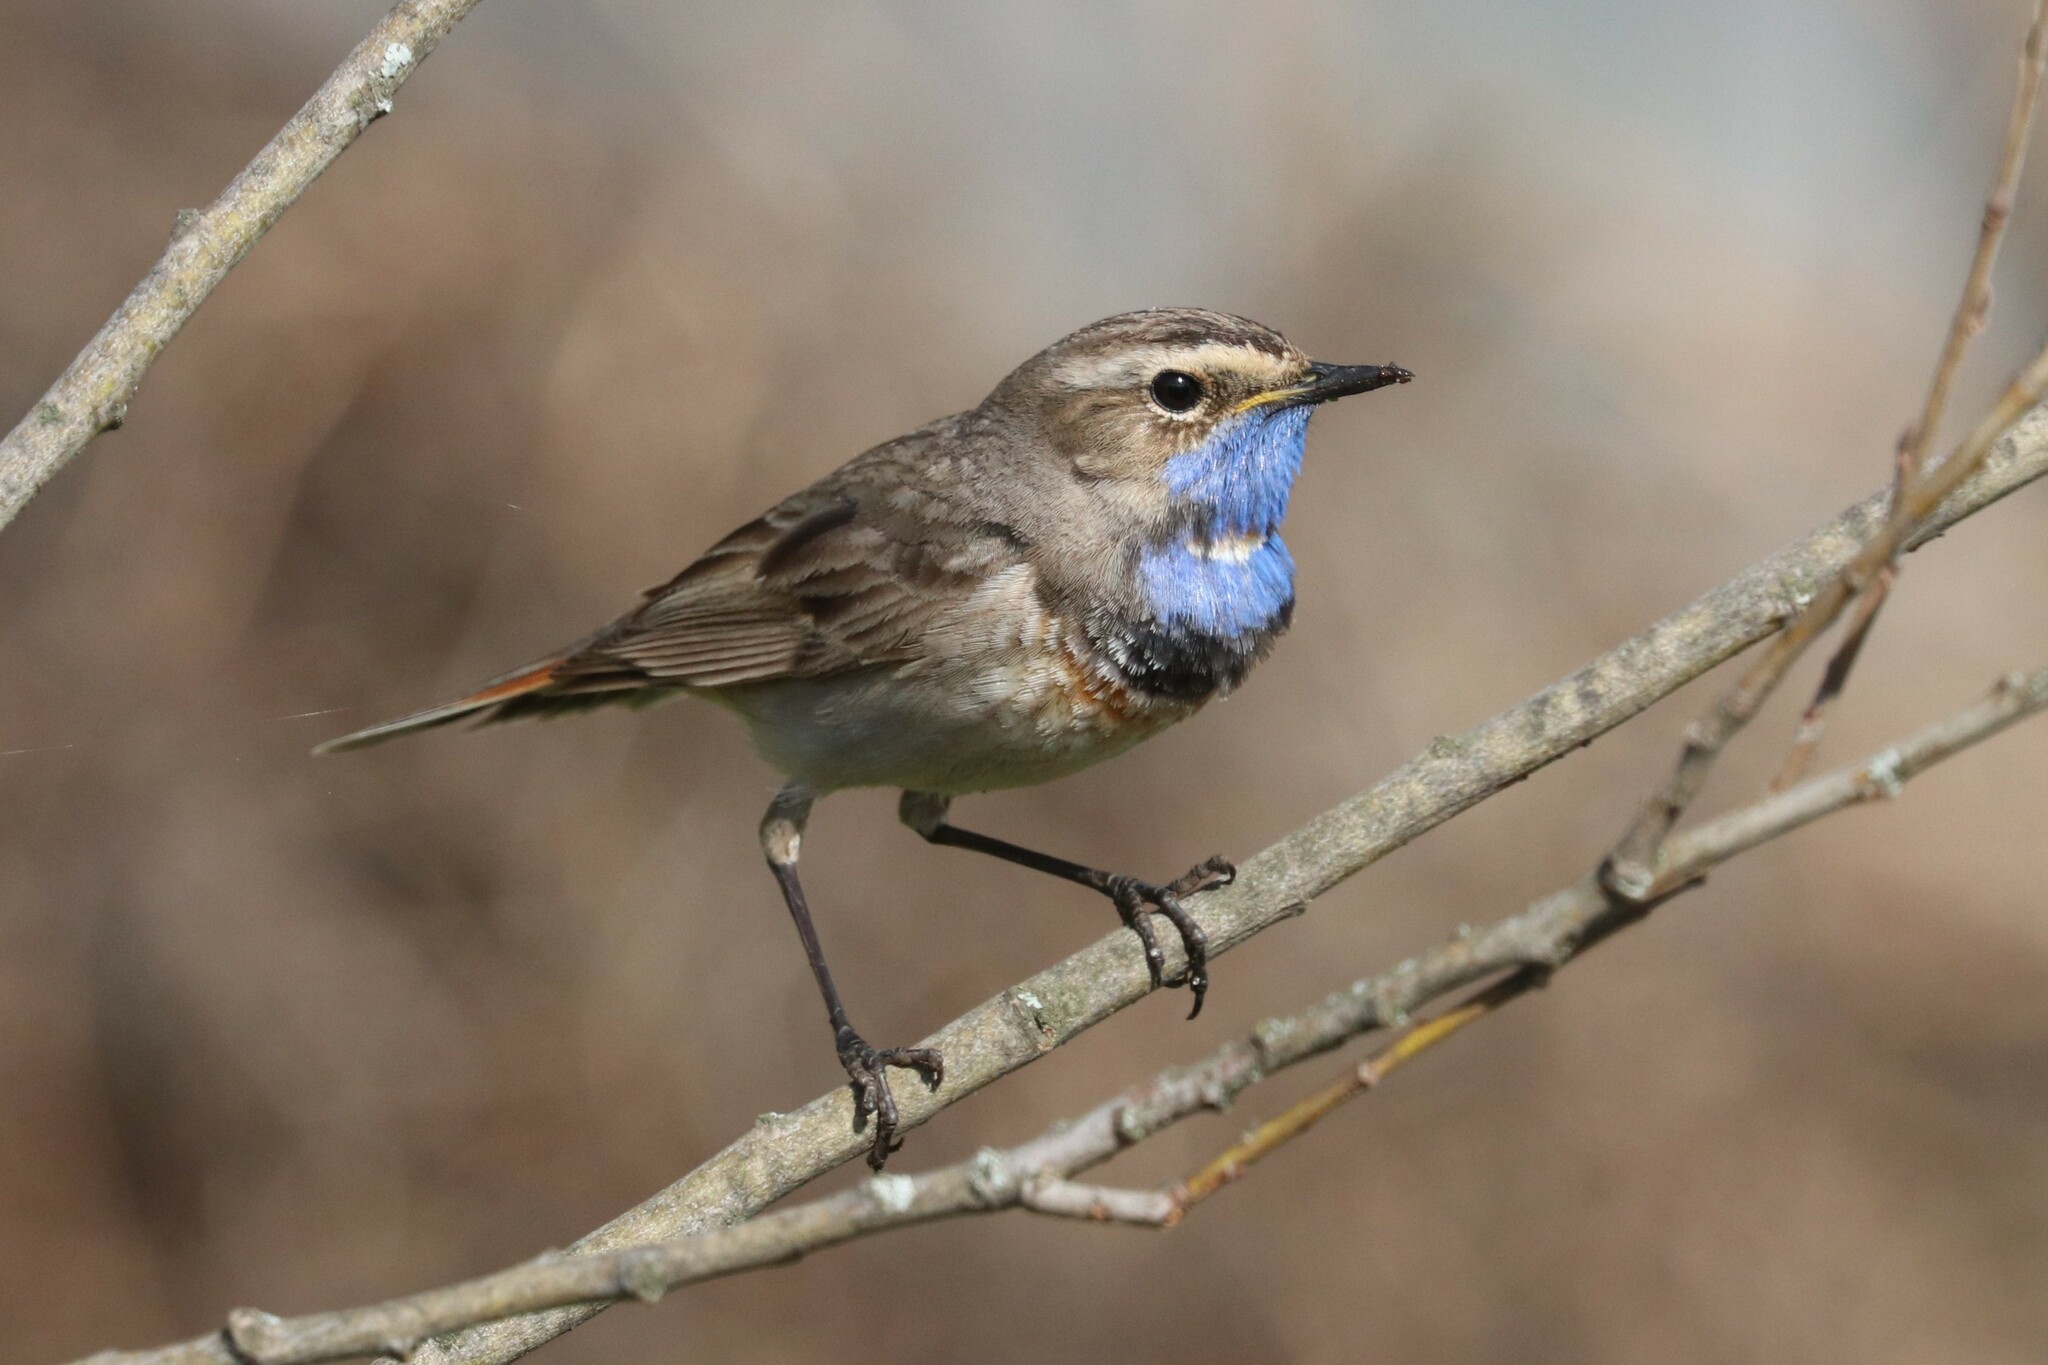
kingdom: Animalia
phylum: Chordata
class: Aves
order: Passeriformes
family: Muscicapidae
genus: Luscinia
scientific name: Luscinia svecica
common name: Bluethroat
